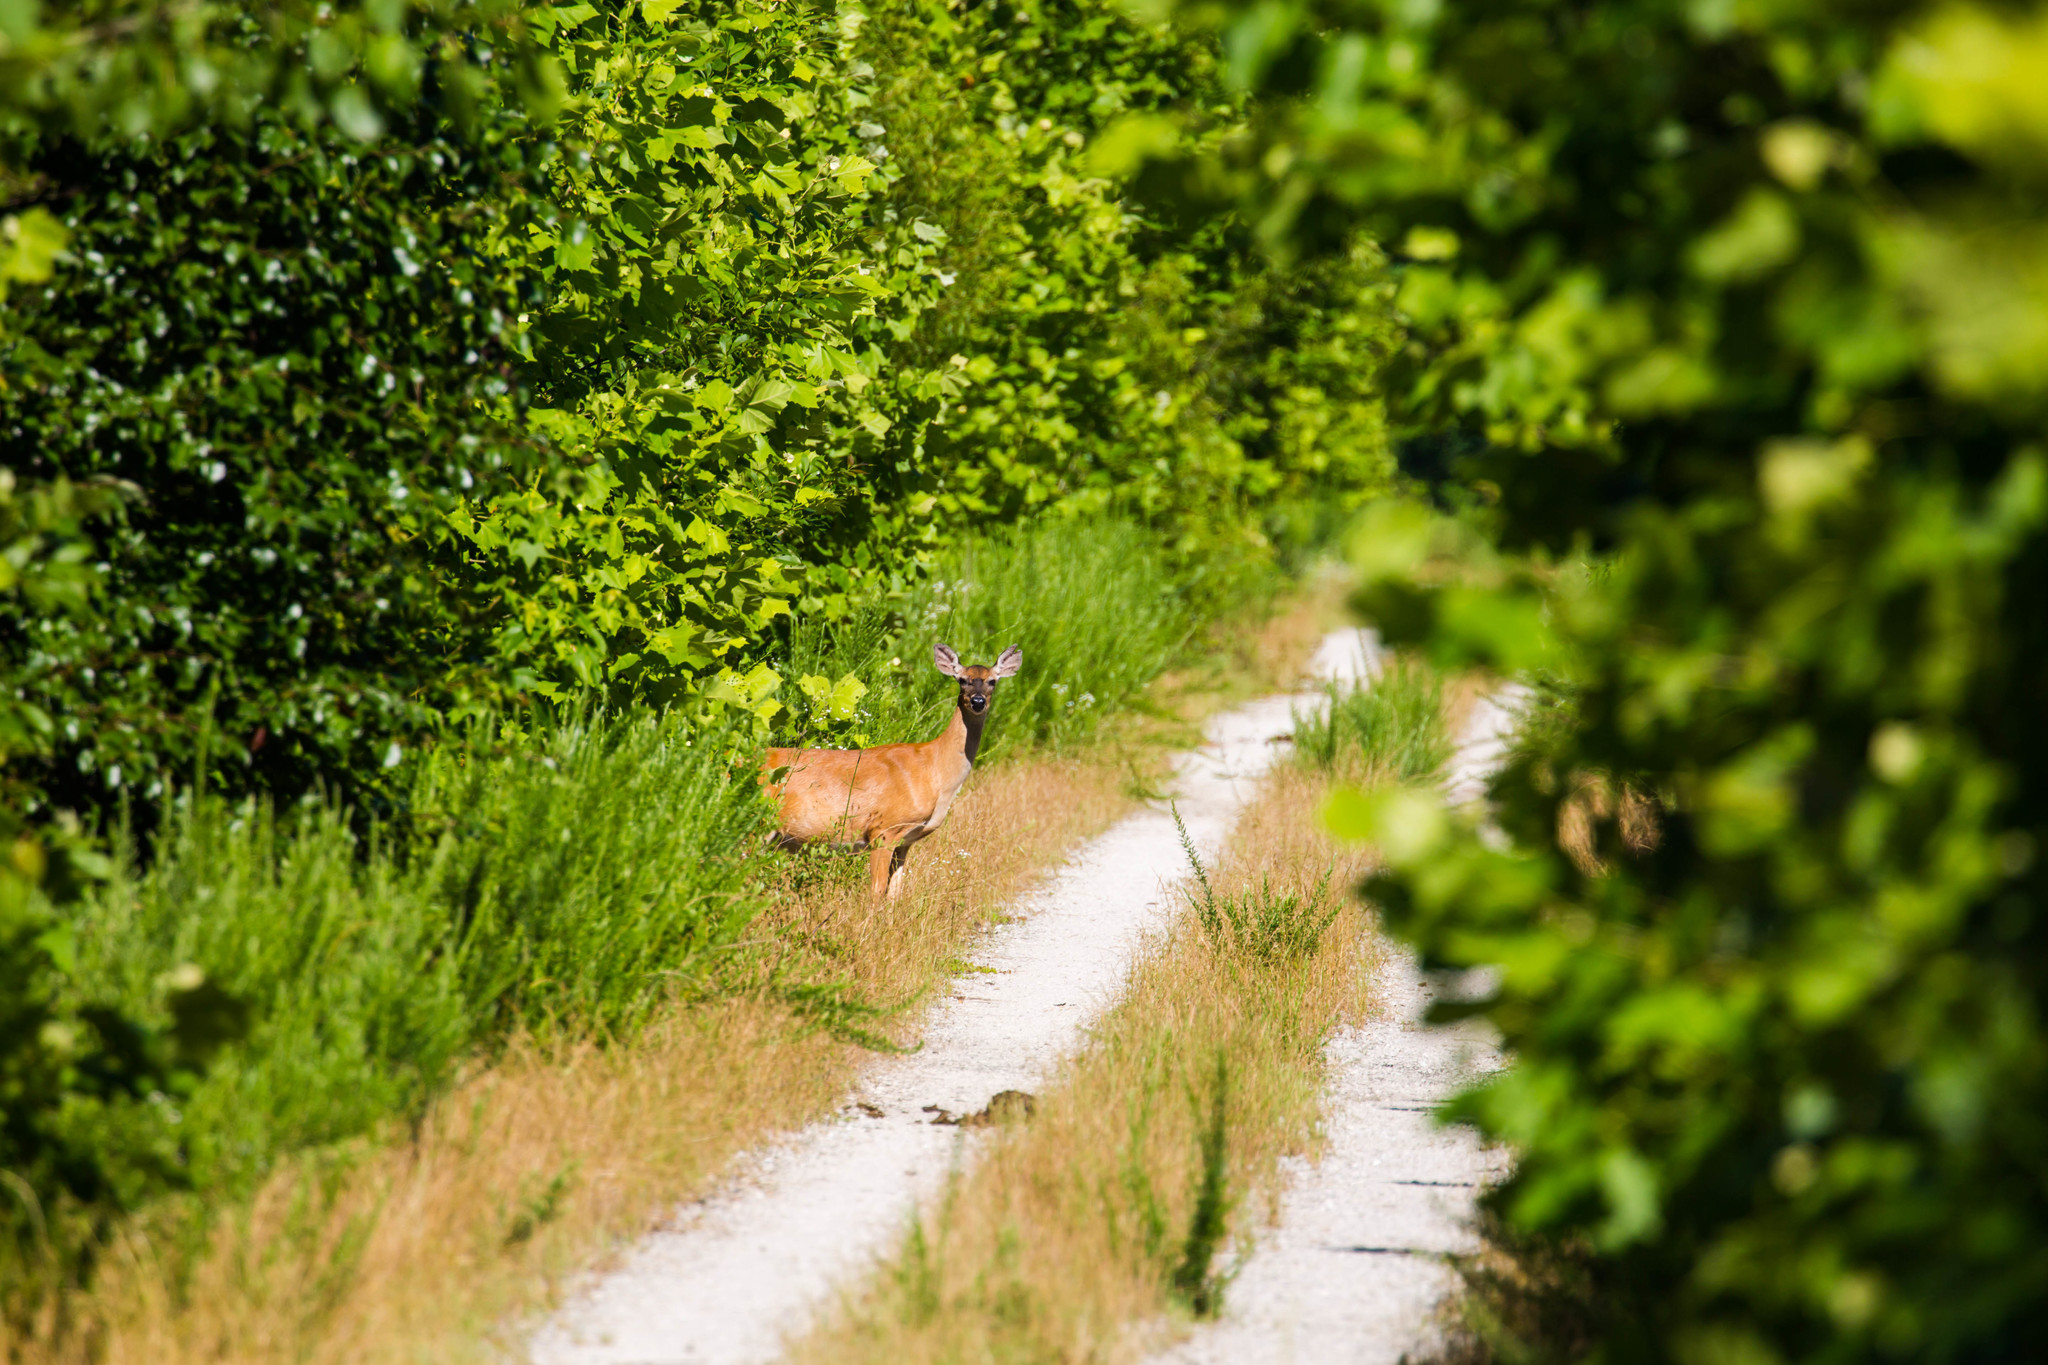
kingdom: Animalia
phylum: Chordata
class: Mammalia
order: Artiodactyla
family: Cervidae
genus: Odocoileus
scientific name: Odocoileus virginianus
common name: White-tailed deer
